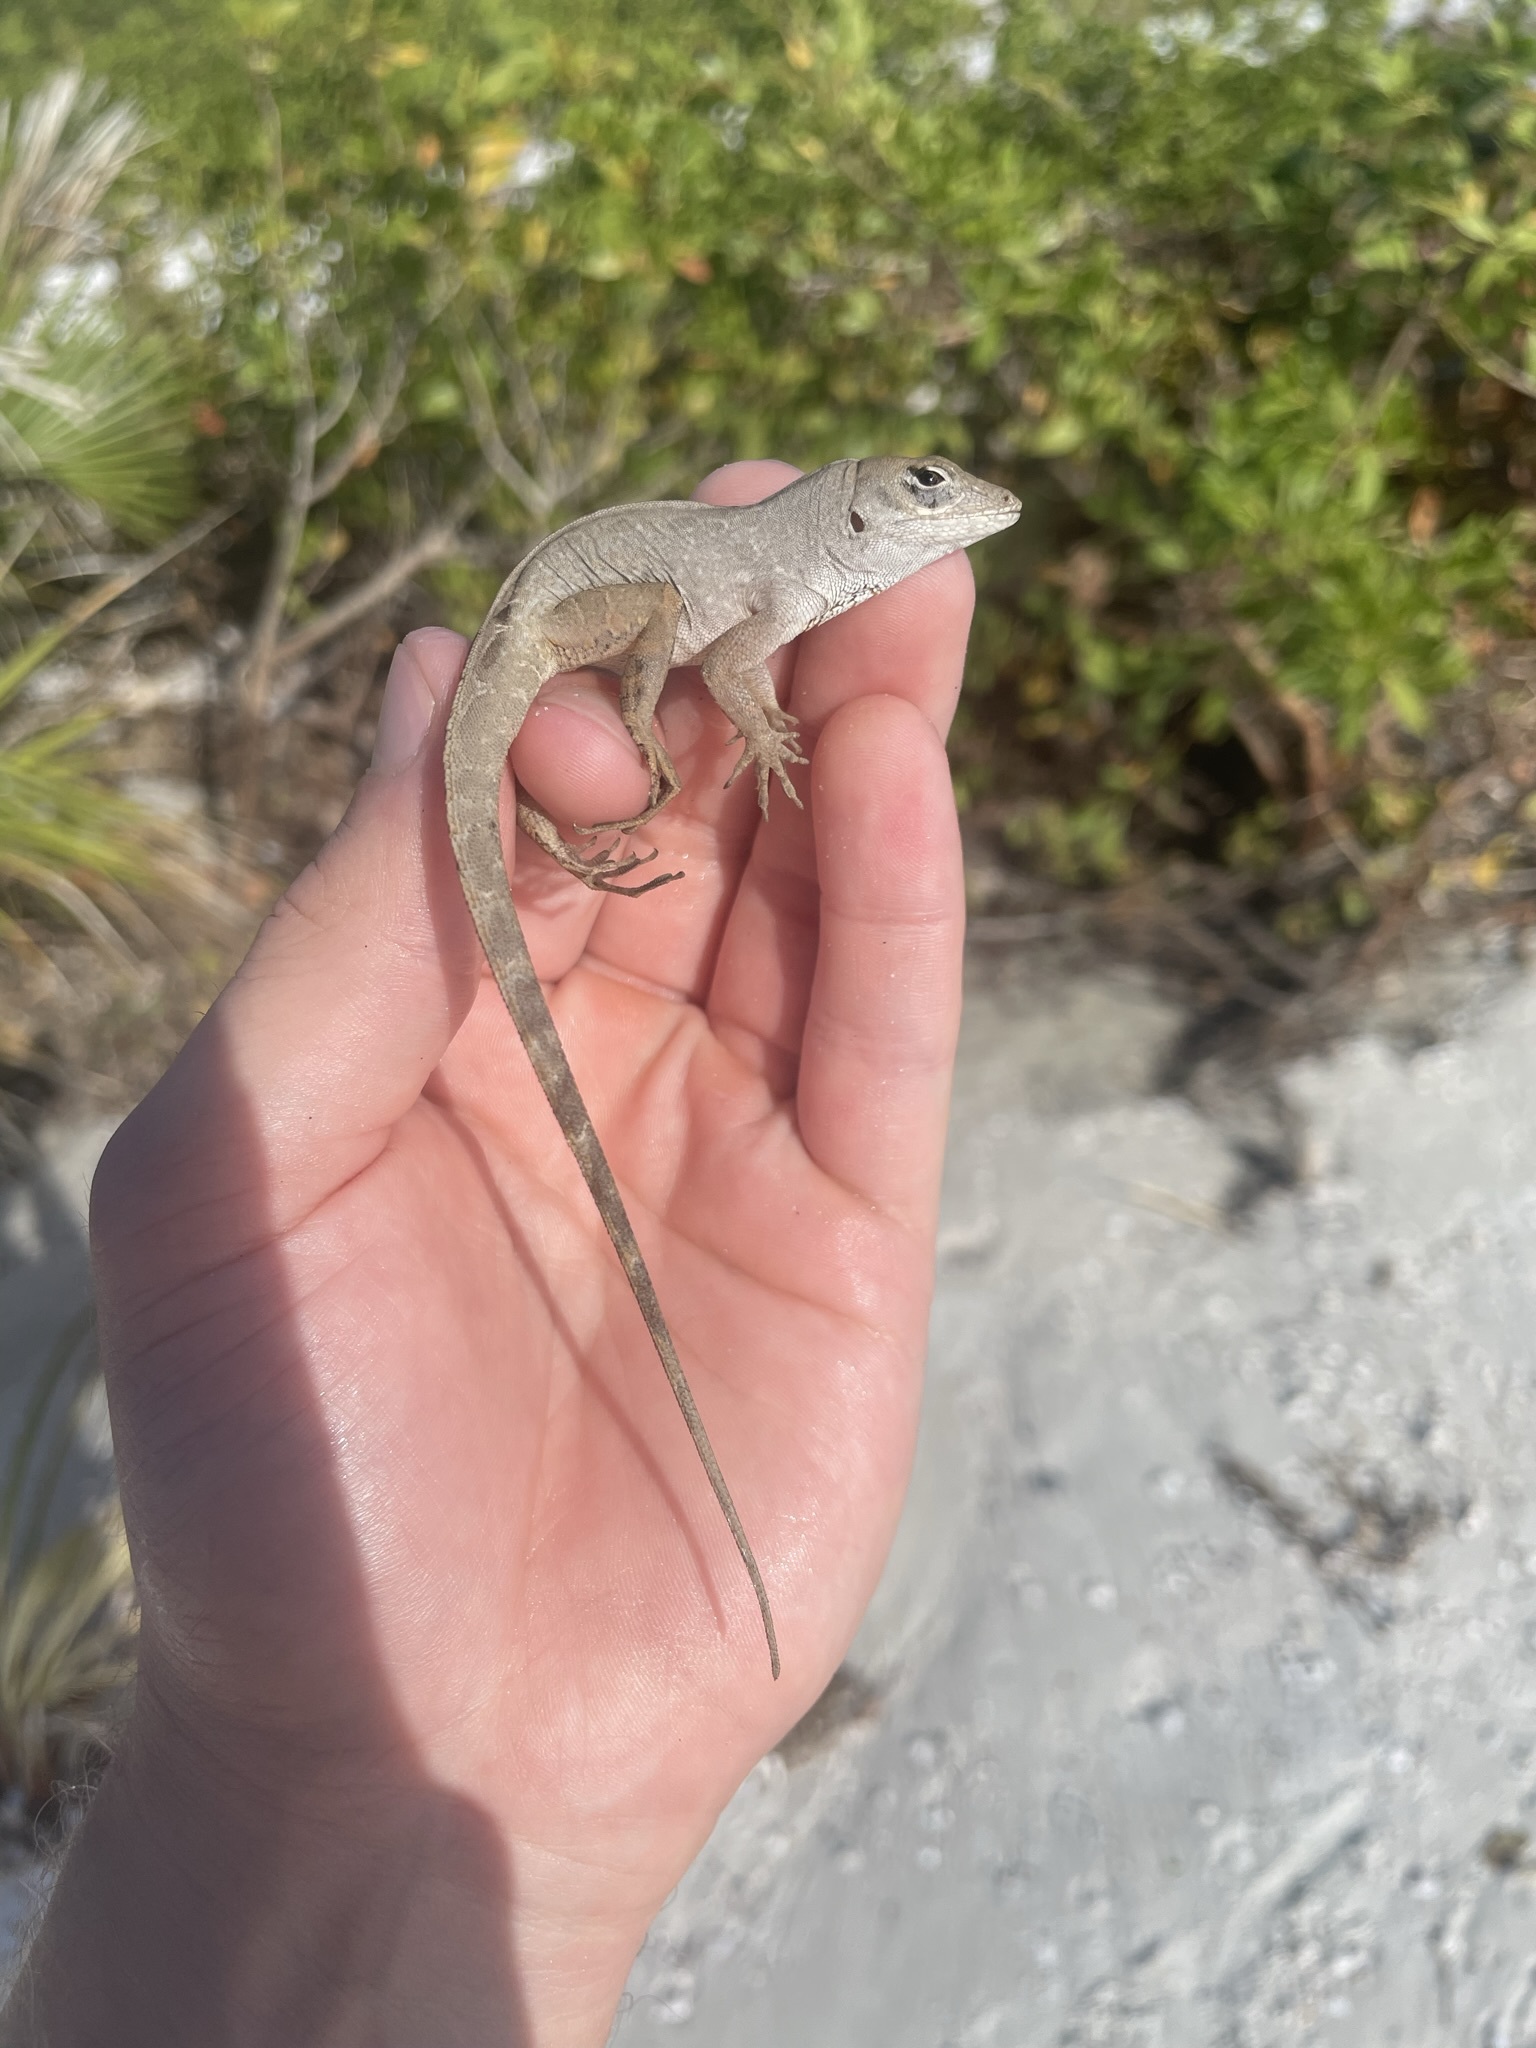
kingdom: Animalia
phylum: Chordata
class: Squamata
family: Dactyloidae
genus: Anolis
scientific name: Anolis sagrei
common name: Brown anole
